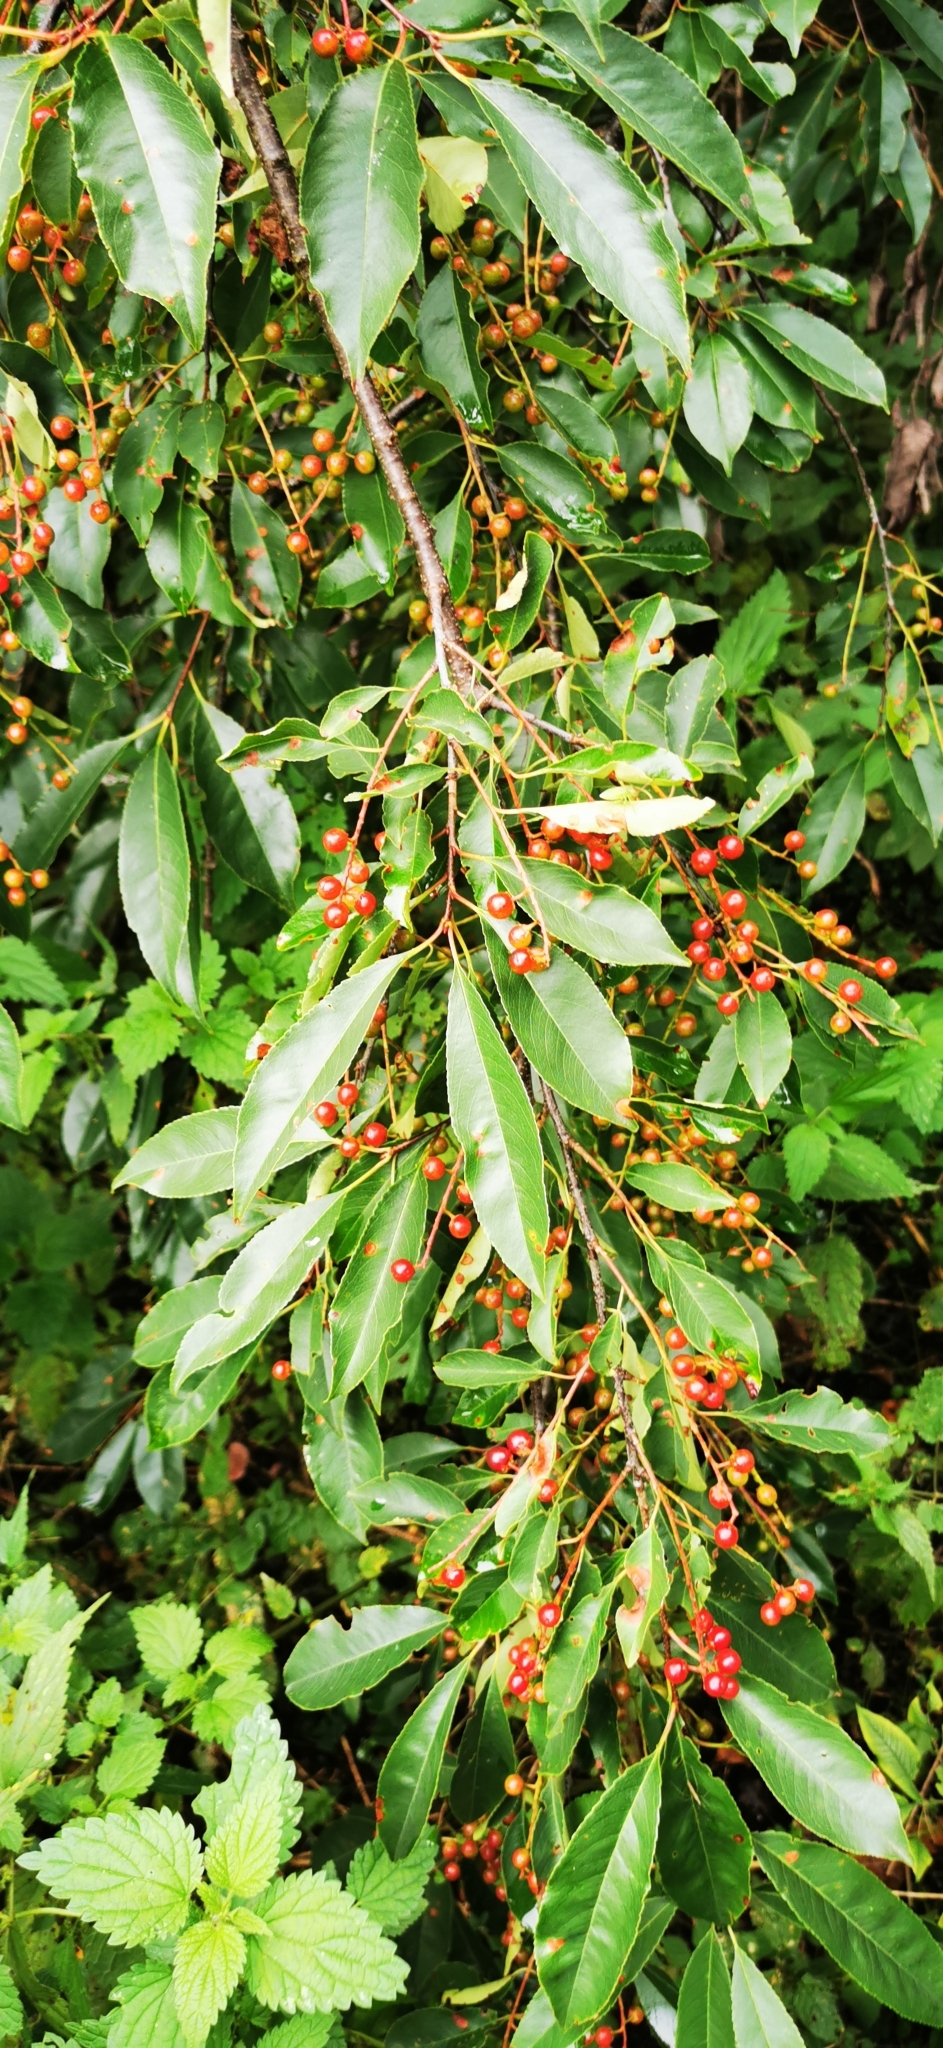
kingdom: Plantae
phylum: Tracheophyta
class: Magnoliopsida
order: Rosales
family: Rosaceae
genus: Prunus
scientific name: Prunus serotina
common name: Black cherry
